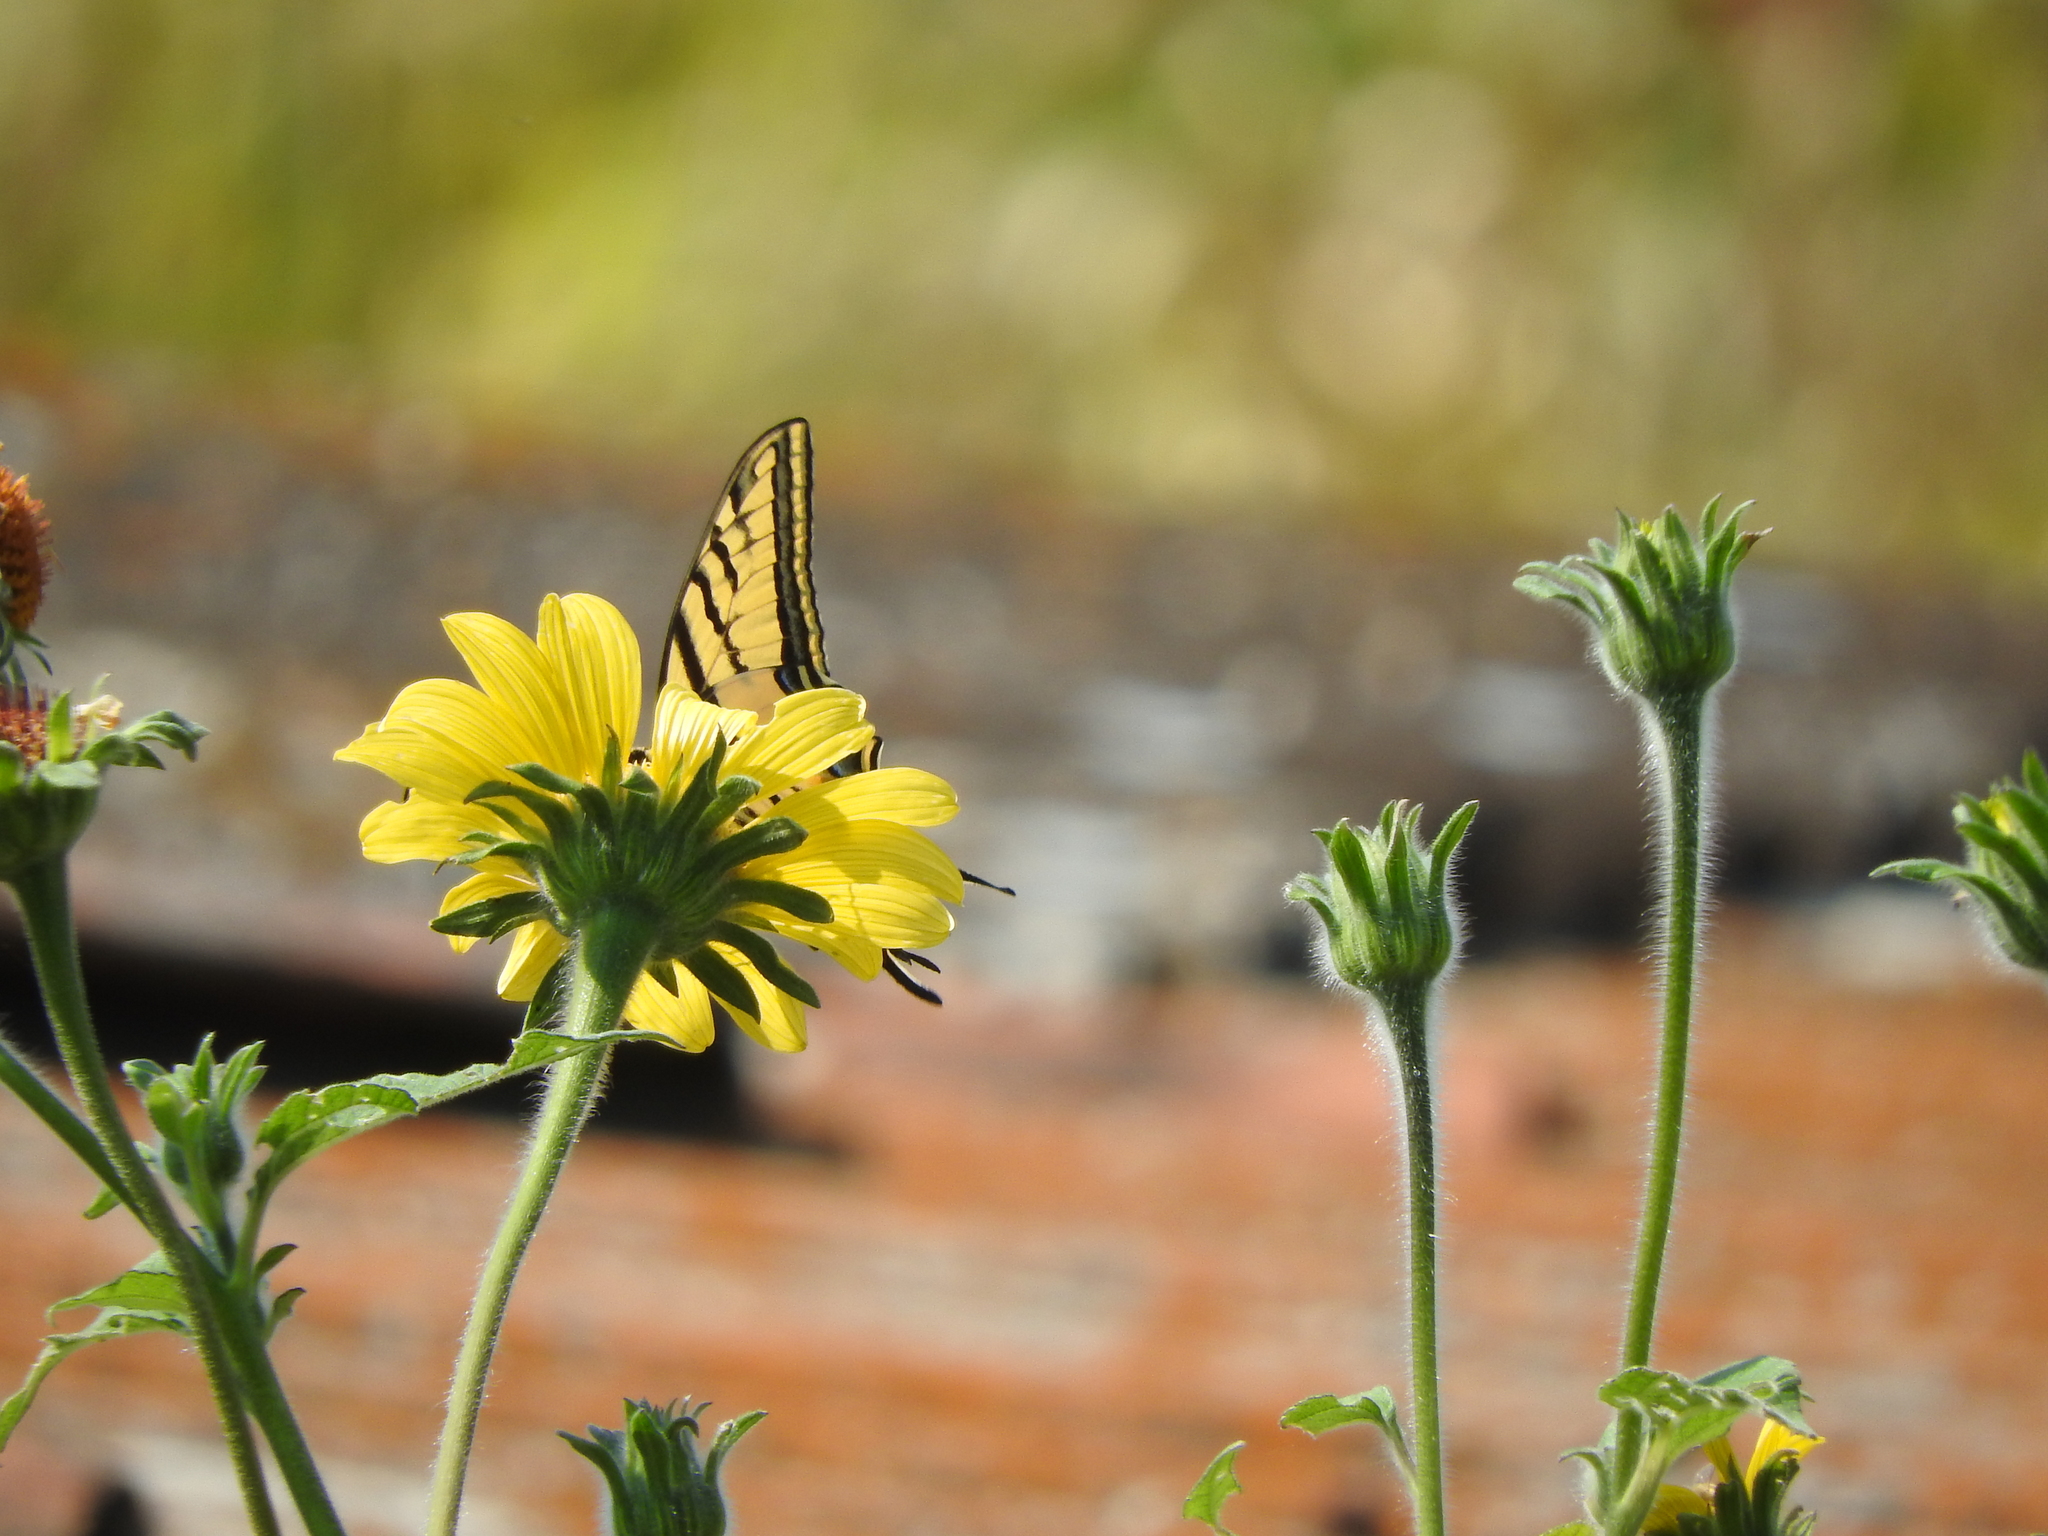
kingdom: Plantae
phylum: Tracheophyta
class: Magnoliopsida
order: Asterales
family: Asteraceae
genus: Tithonia
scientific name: Tithonia tubaeformis
